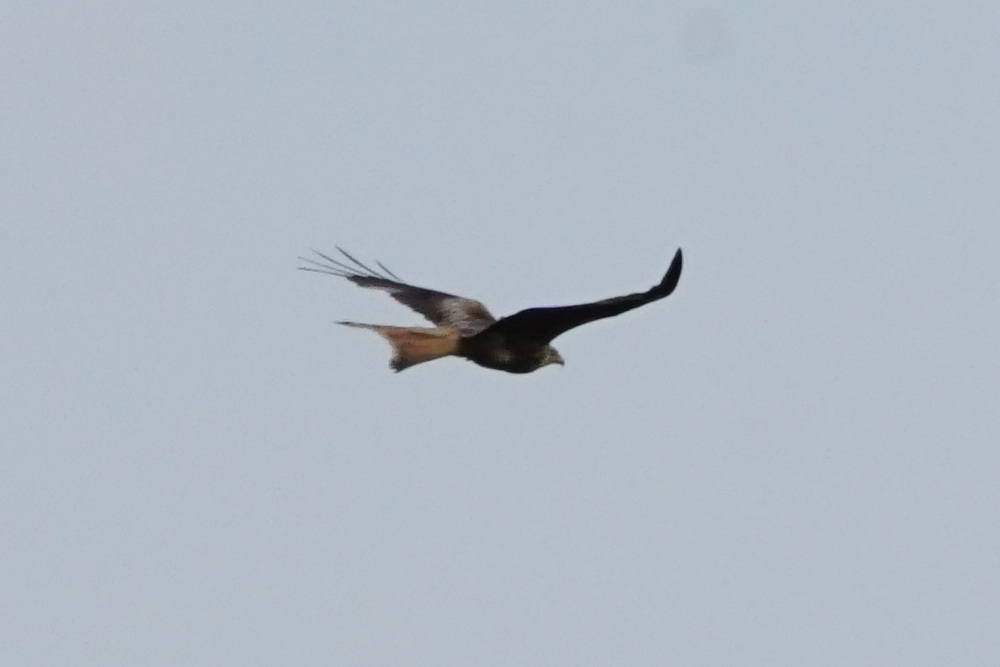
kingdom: Animalia
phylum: Chordata
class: Aves
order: Accipitriformes
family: Accipitridae
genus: Milvus
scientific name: Milvus milvus
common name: Red kite
